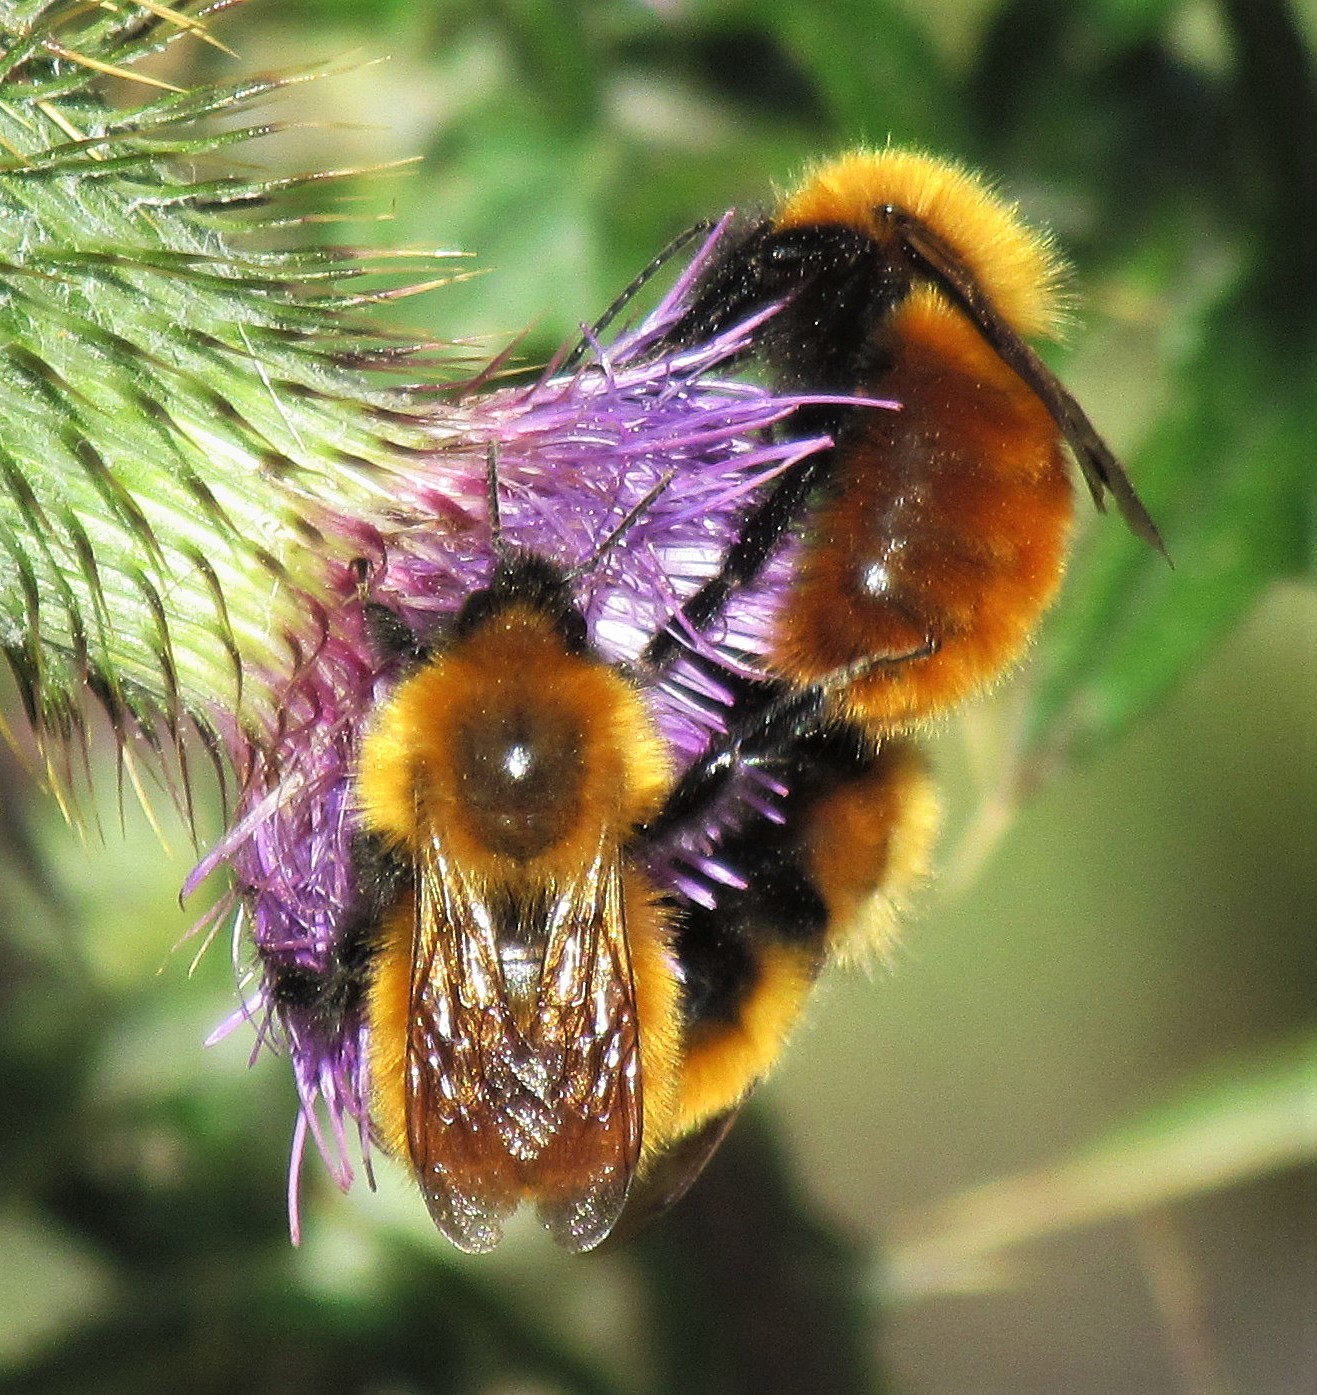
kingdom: Animalia
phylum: Arthropoda
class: Insecta
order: Hymenoptera
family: Apidae
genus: Bombus
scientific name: Bombus dahlbomii
